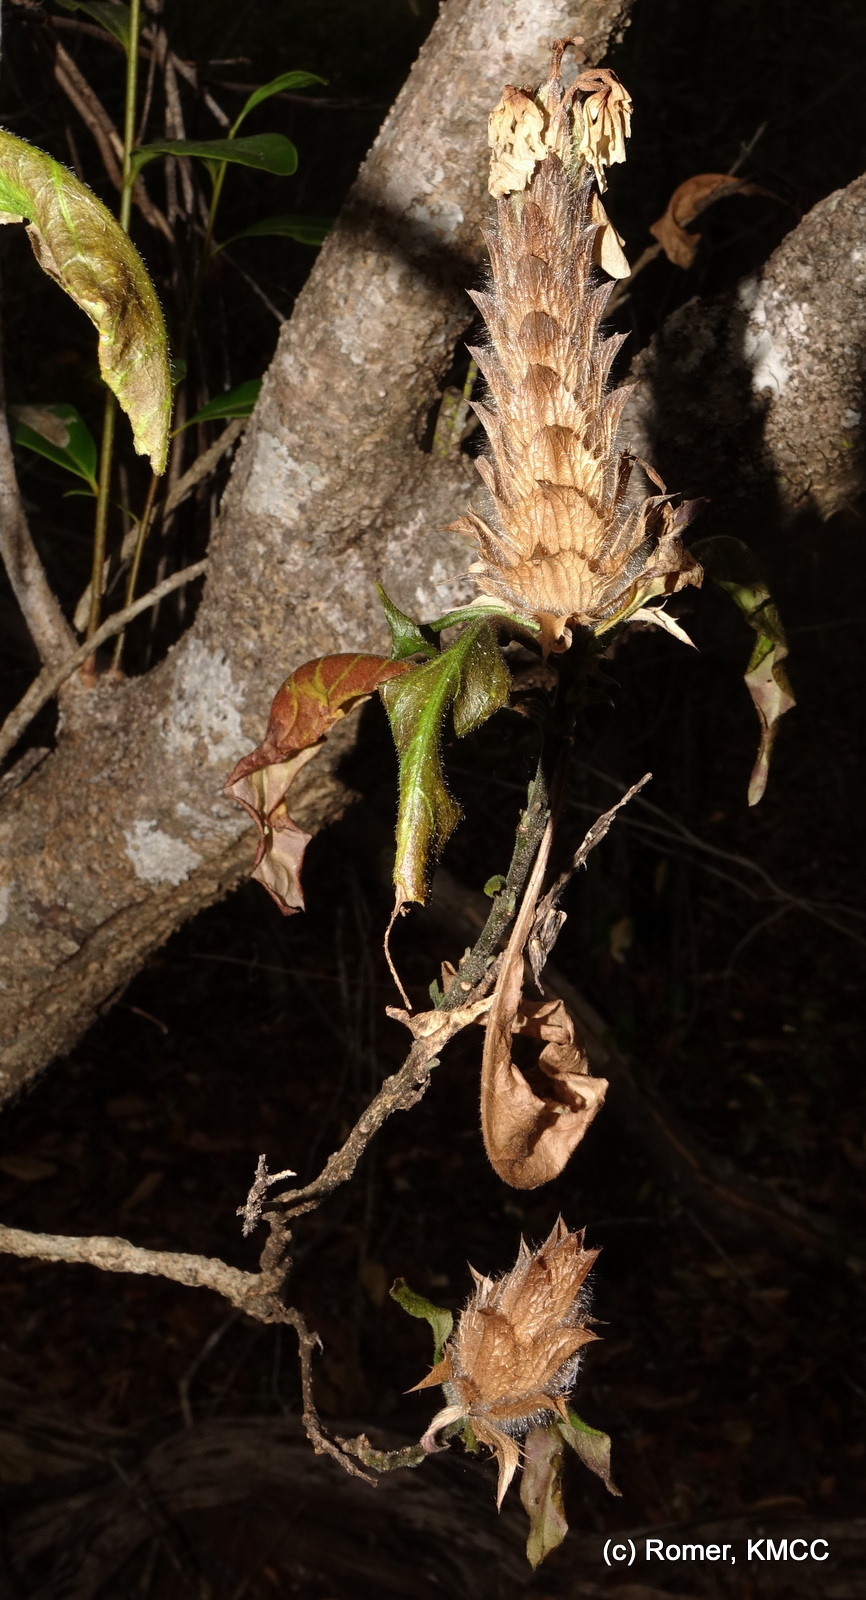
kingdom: Plantae
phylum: Tracheophyta
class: Magnoliopsida
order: Lamiales
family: Acanthaceae
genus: Crossandra
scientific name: Crossandra albolineata
